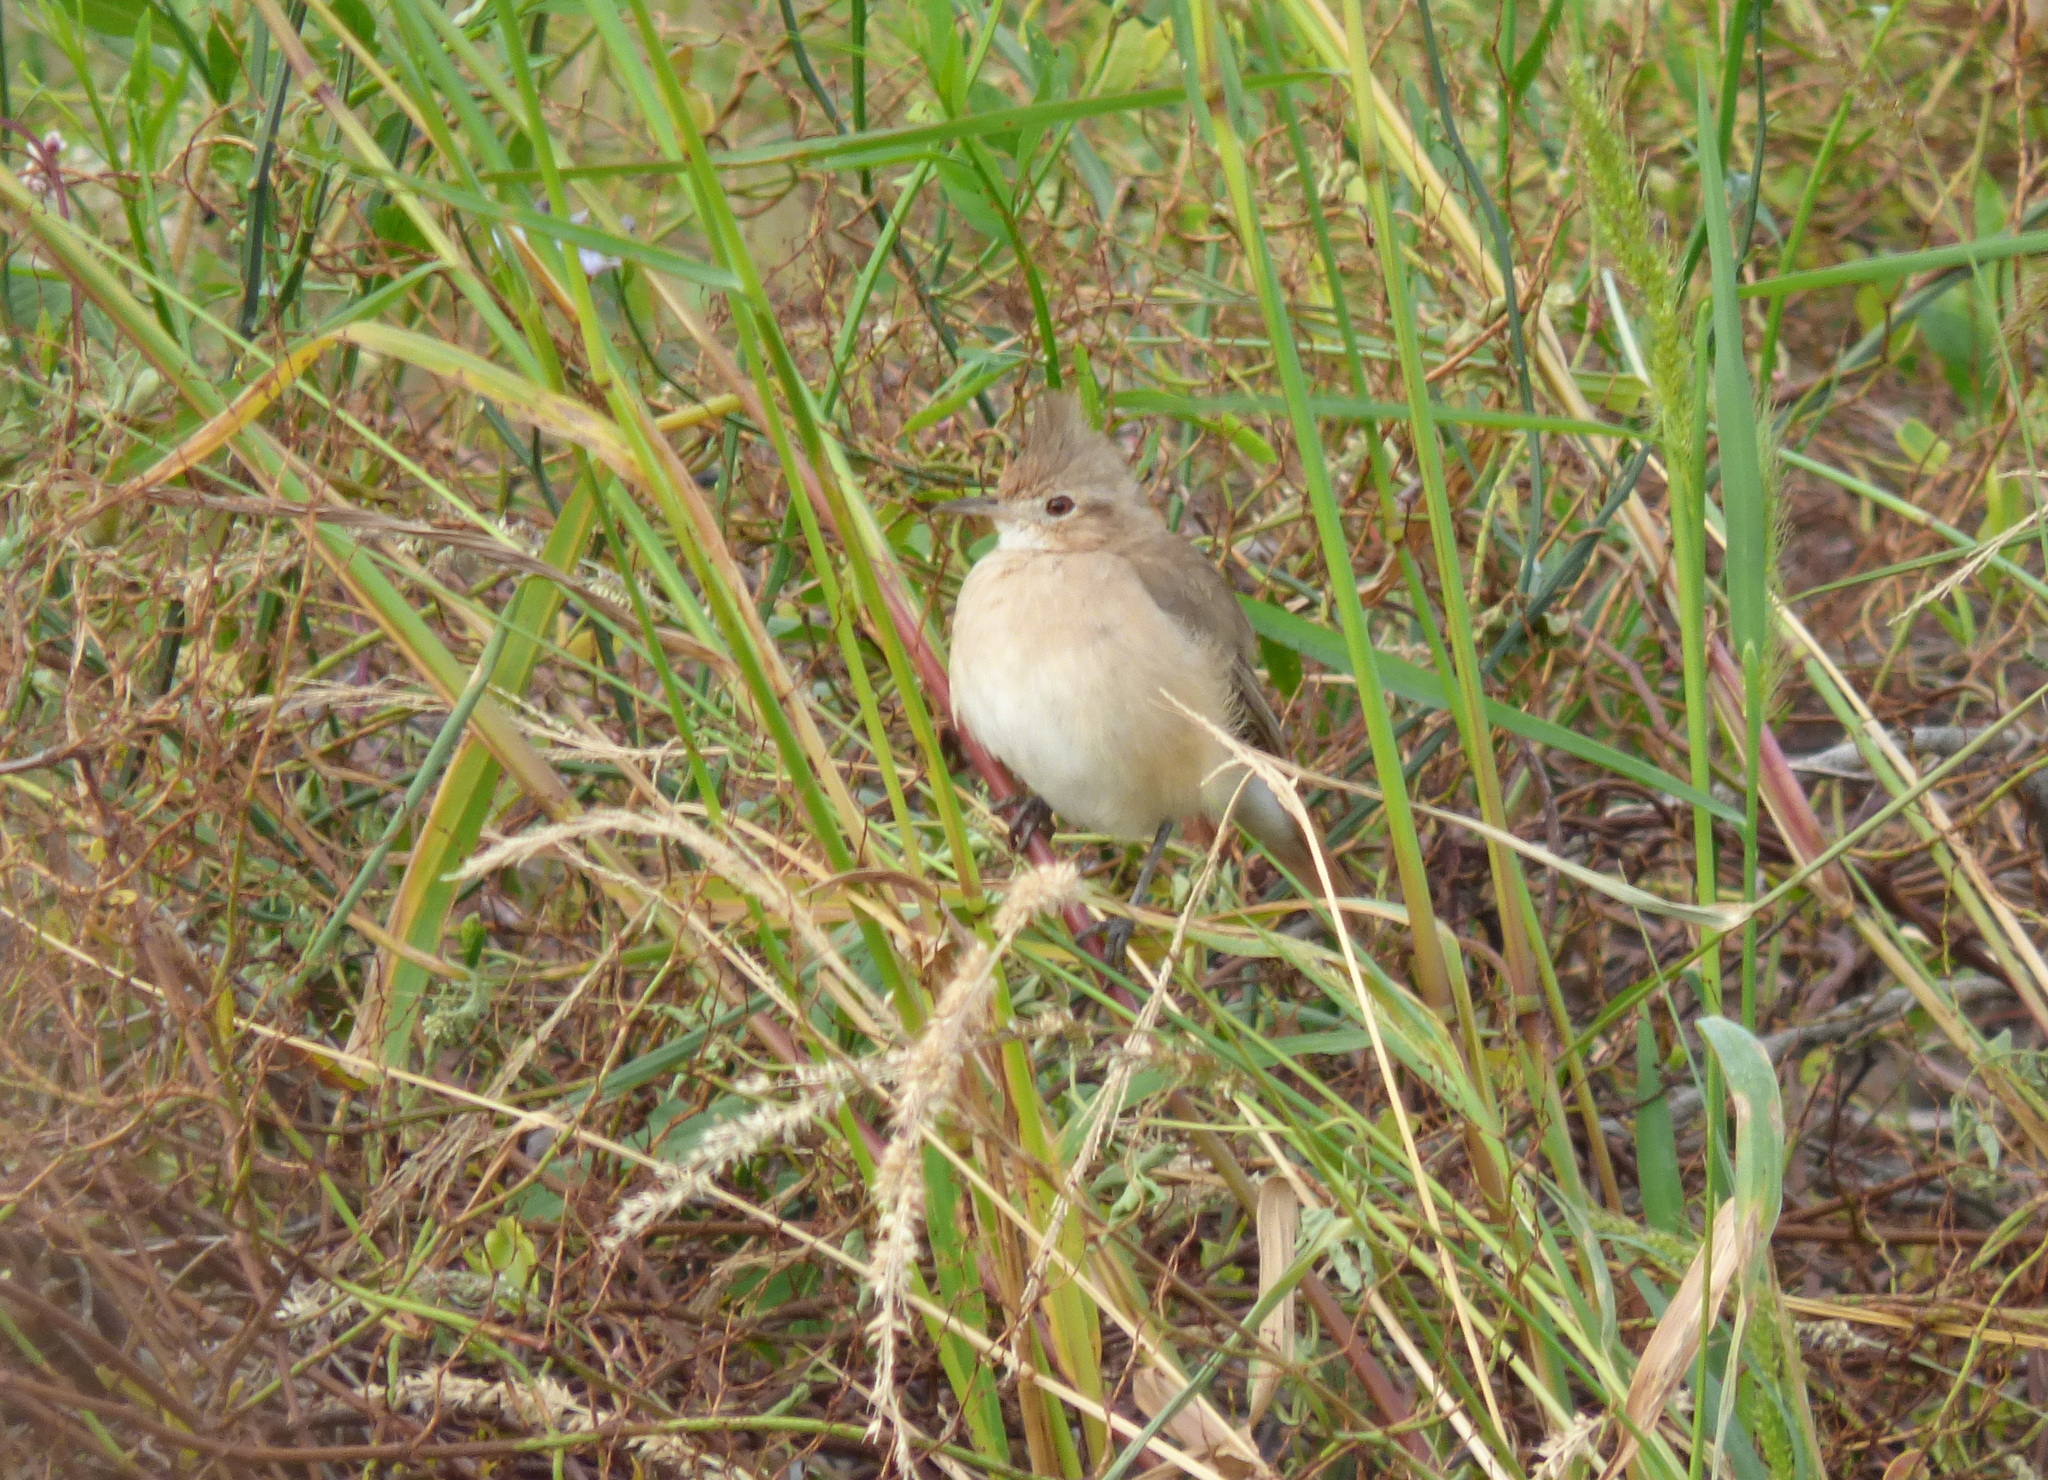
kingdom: Animalia
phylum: Chordata
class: Aves
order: Passeriformes
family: Furnariidae
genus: Furnarius
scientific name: Furnarius cristatus
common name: Crested hornero
